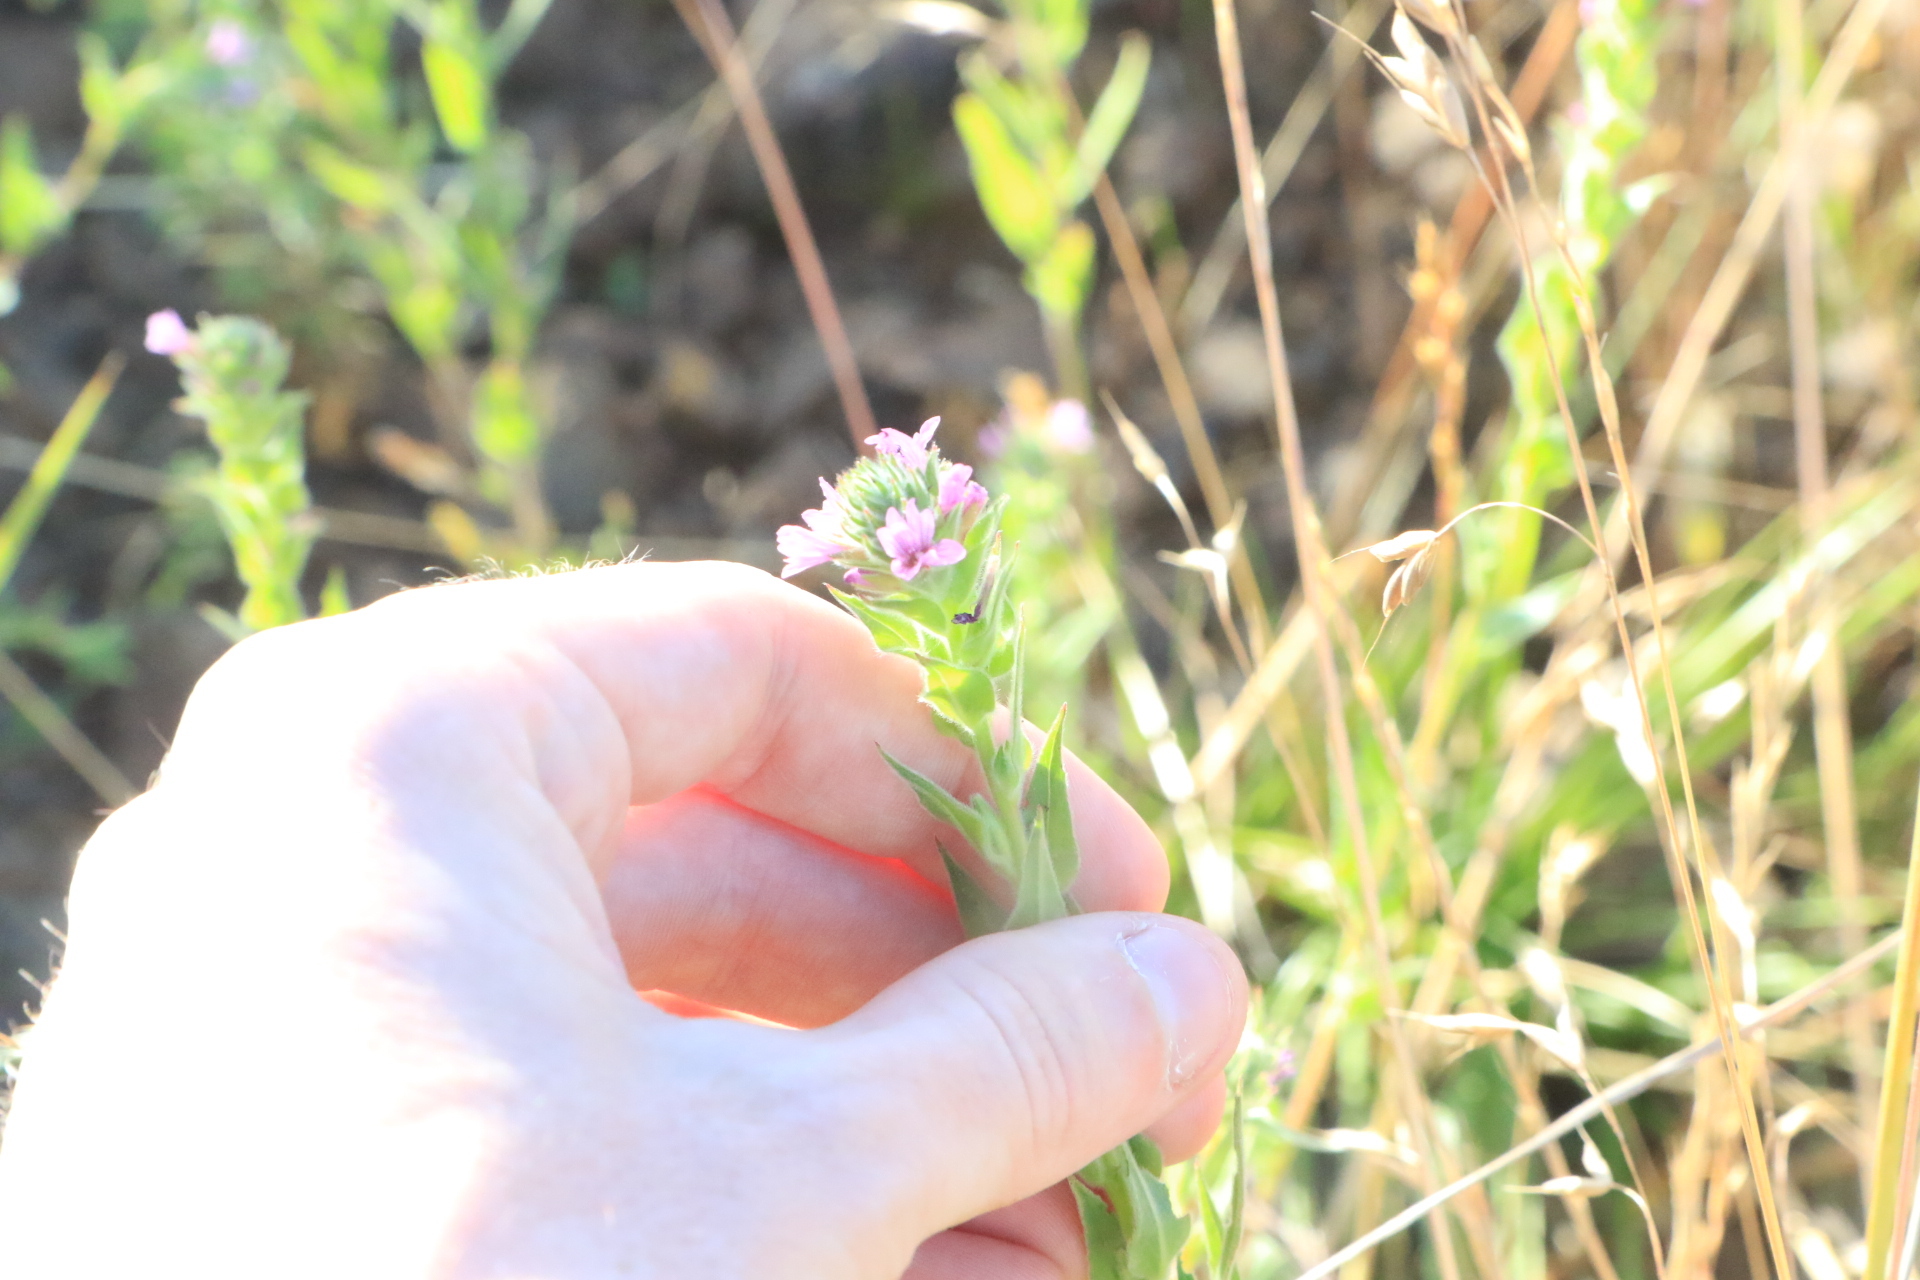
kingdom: Plantae
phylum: Tracheophyta
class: Magnoliopsida
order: Myrtales
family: Onagraceae
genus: Epilobium
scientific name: Epilobium densiflorum
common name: Dense spike-primrose
